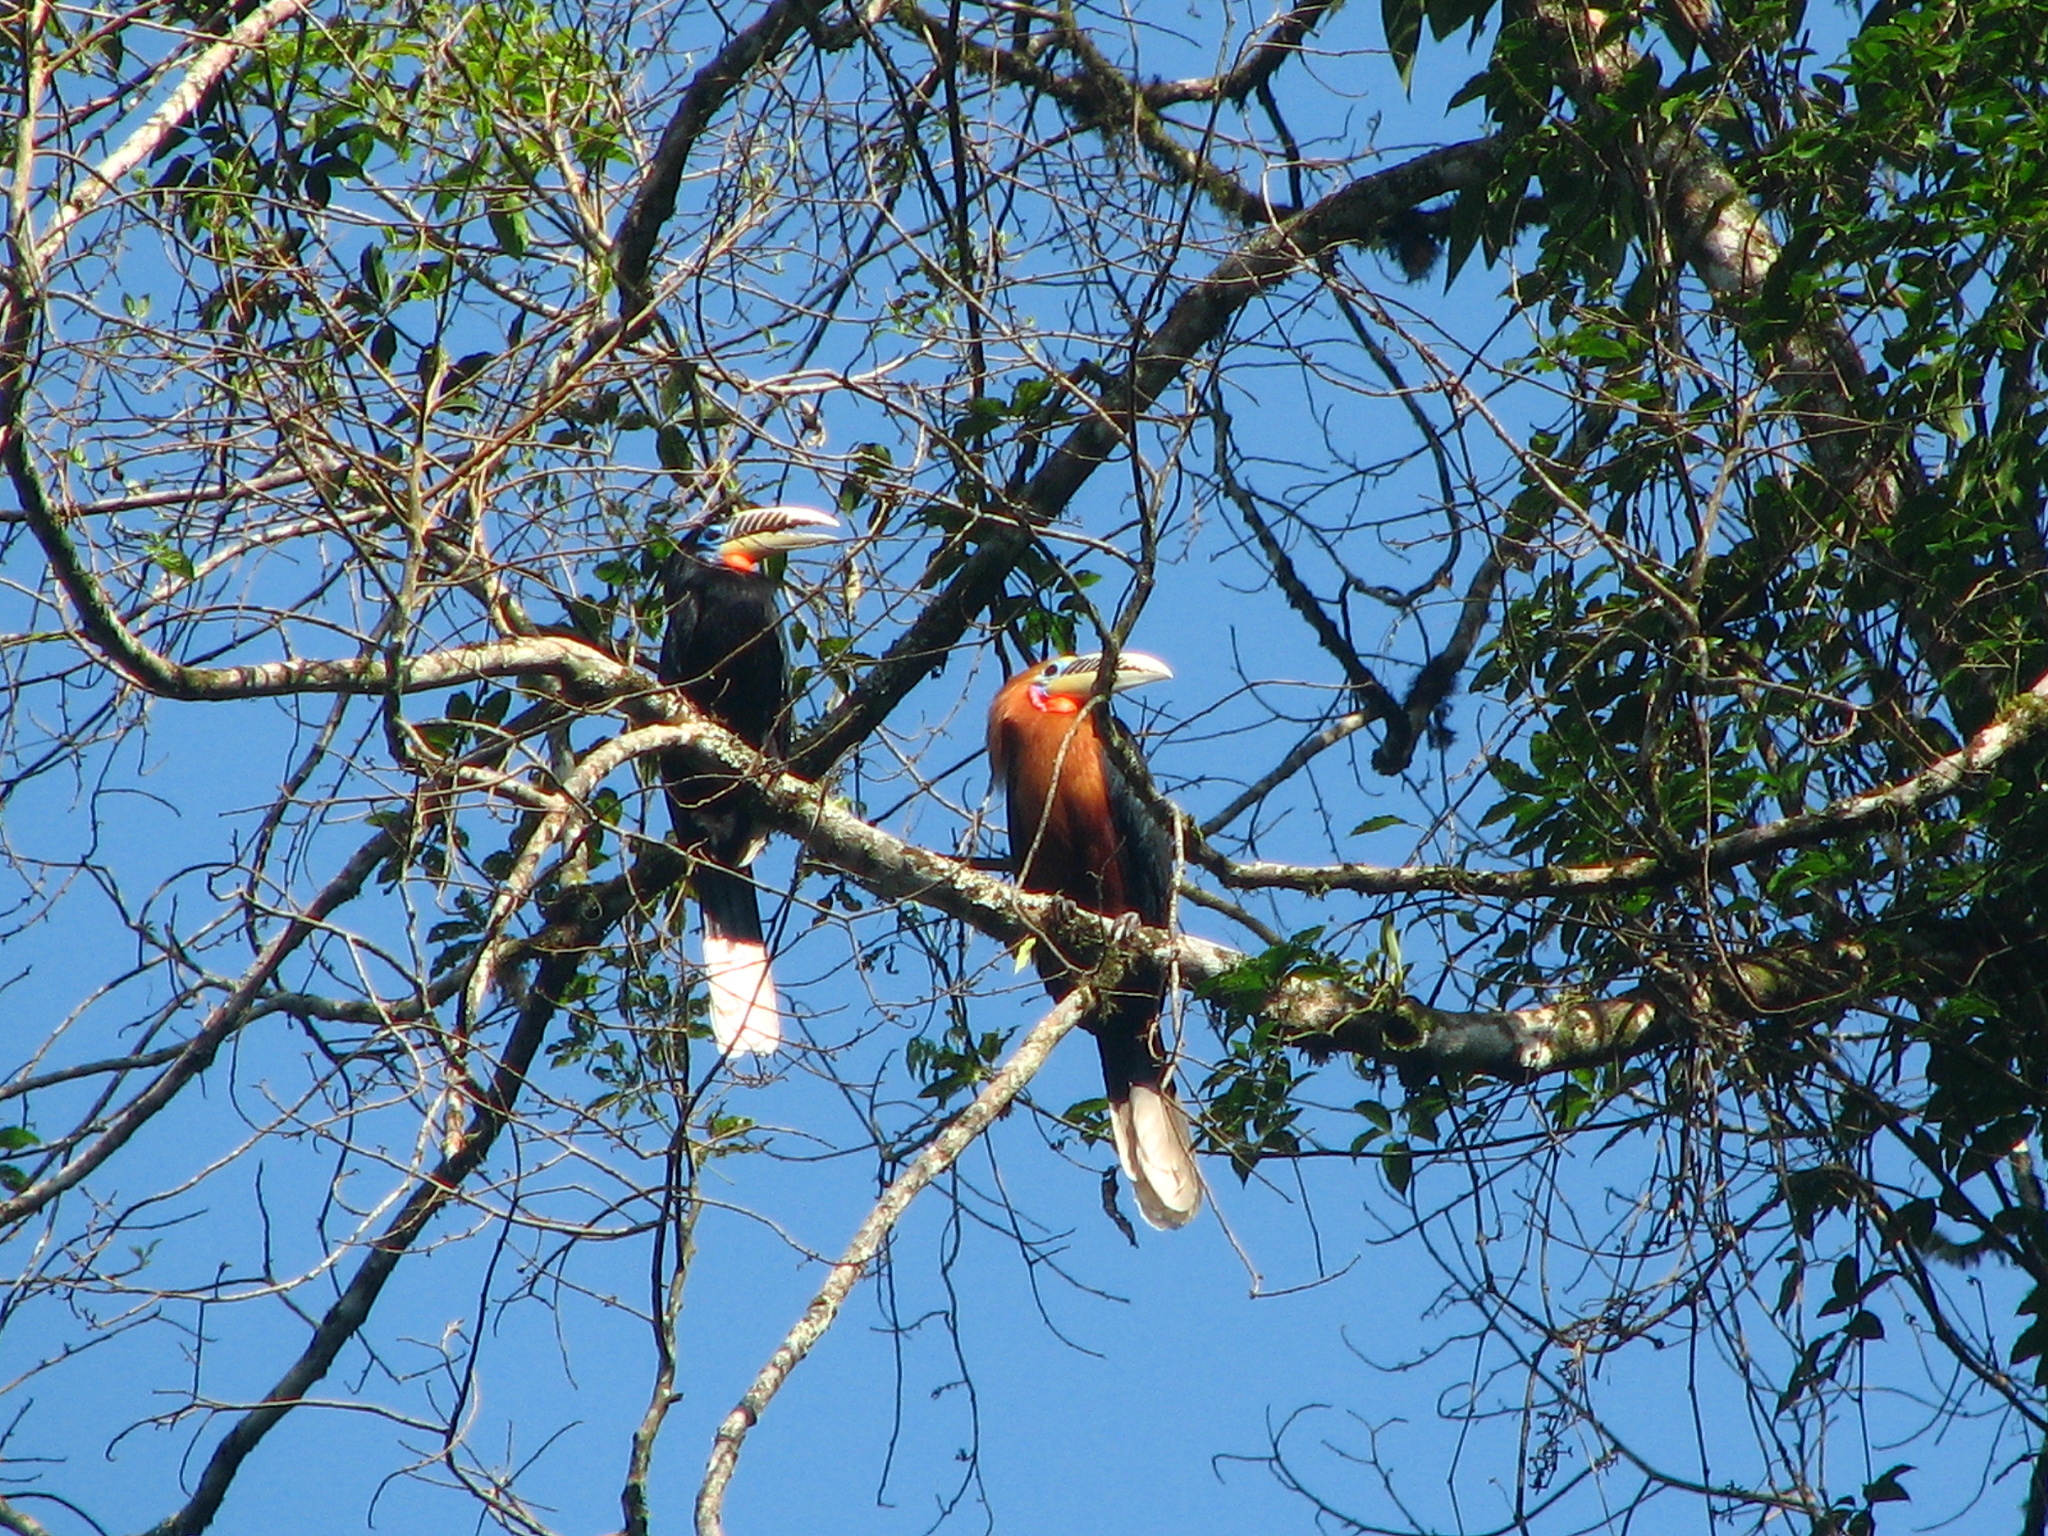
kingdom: Animalia
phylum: Chordata
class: Aves
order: Bucerotiformes
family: Bucerotidae
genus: Aceros
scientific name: Aceros nipalensis
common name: Rufous-necked hornbill
